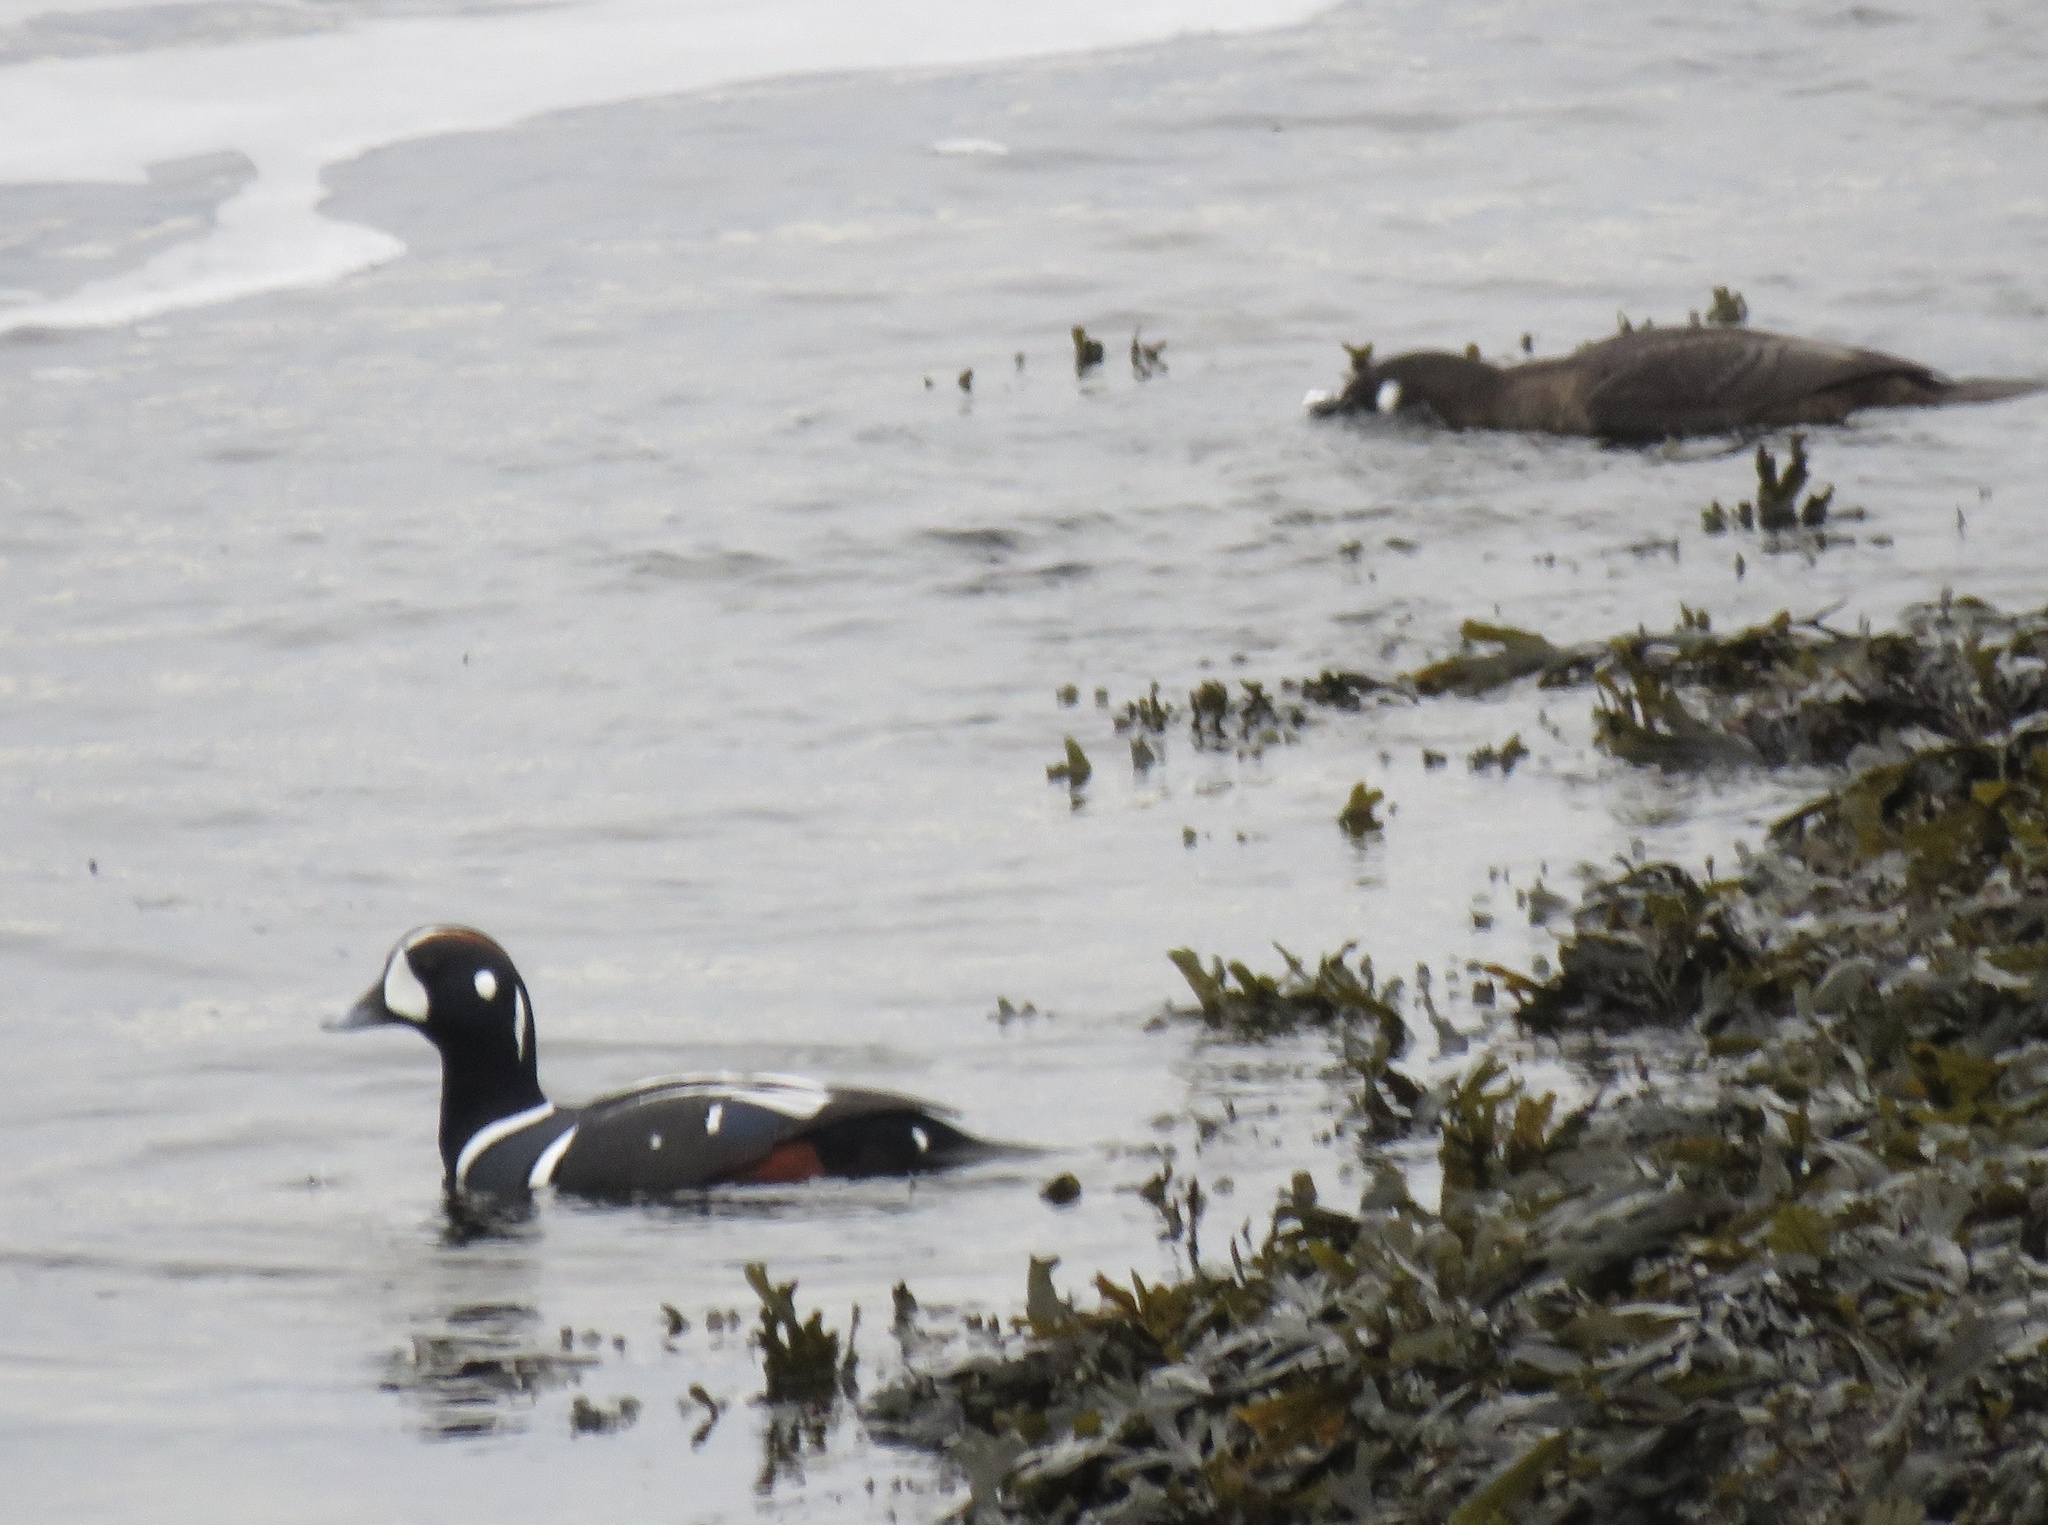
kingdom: Animalia
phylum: Chordata
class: Aves
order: Anseriformes
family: Anatidae
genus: Histrionicus
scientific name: Histrionicus histrionicus
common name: Harlequin duck
